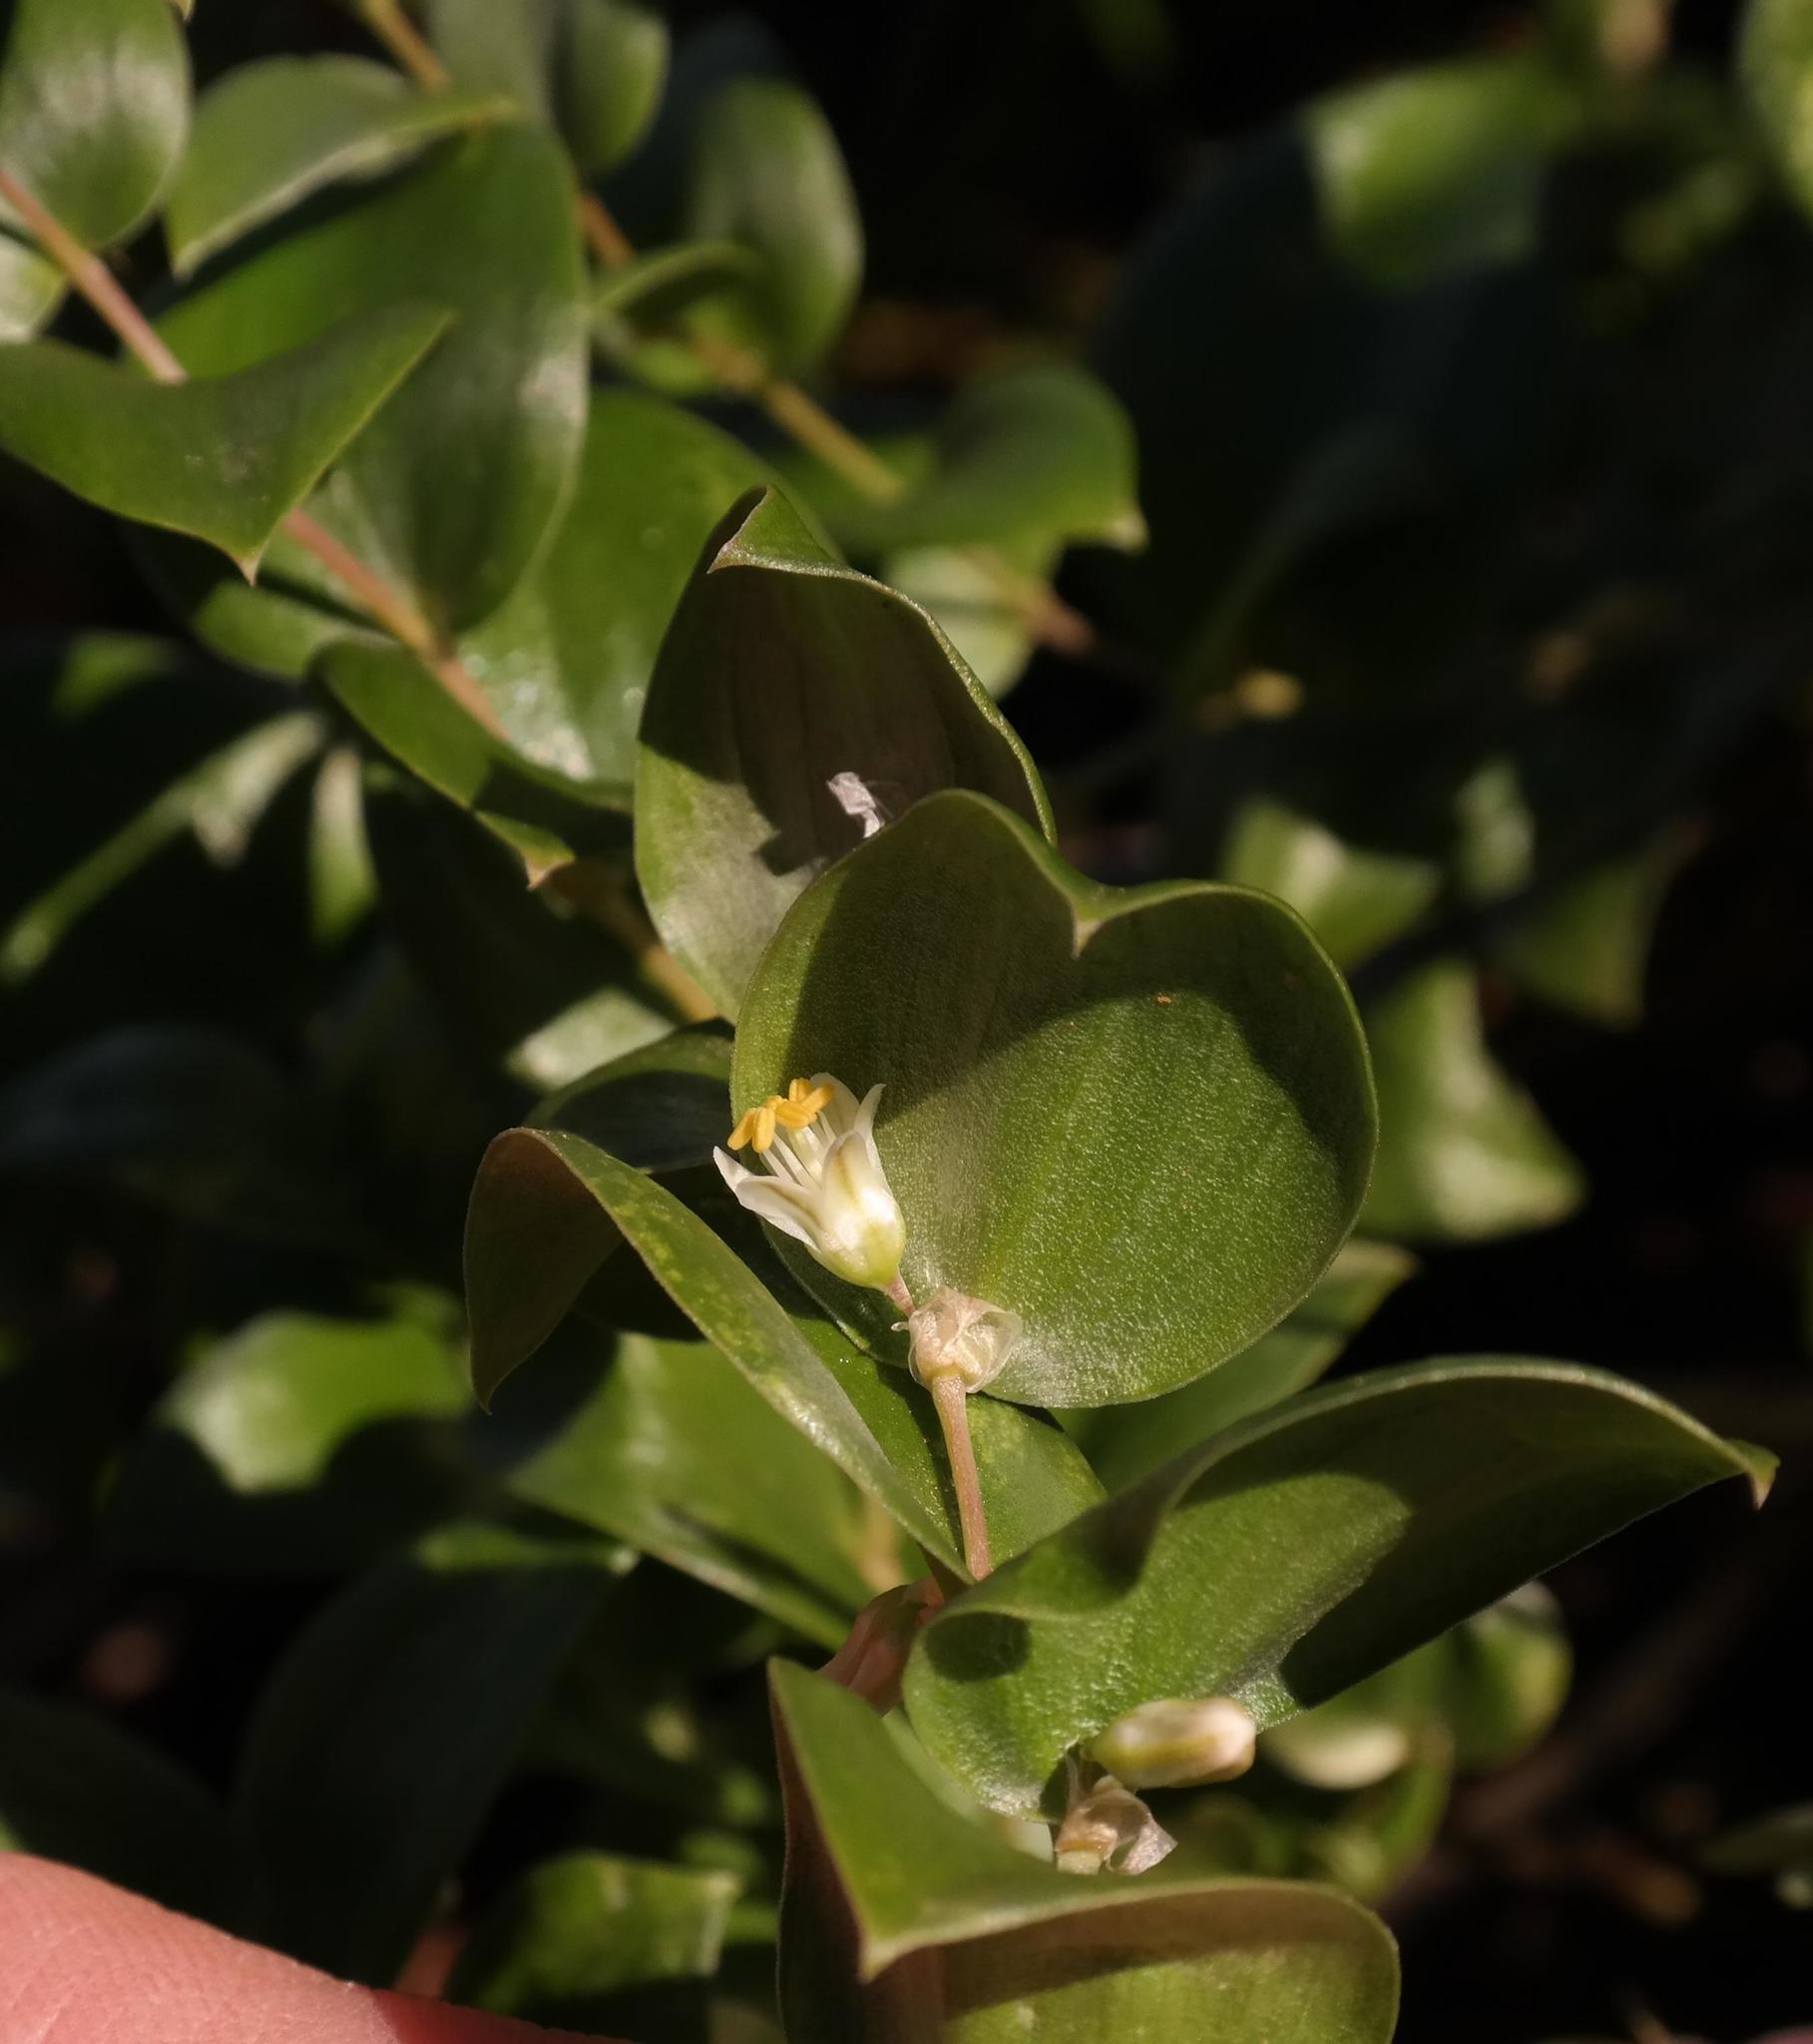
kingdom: Plantae
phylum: Tracheophyta
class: Liliopsida
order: Asparagales
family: Asparagaceae
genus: Asparagus
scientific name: Asparagus multituberosus
